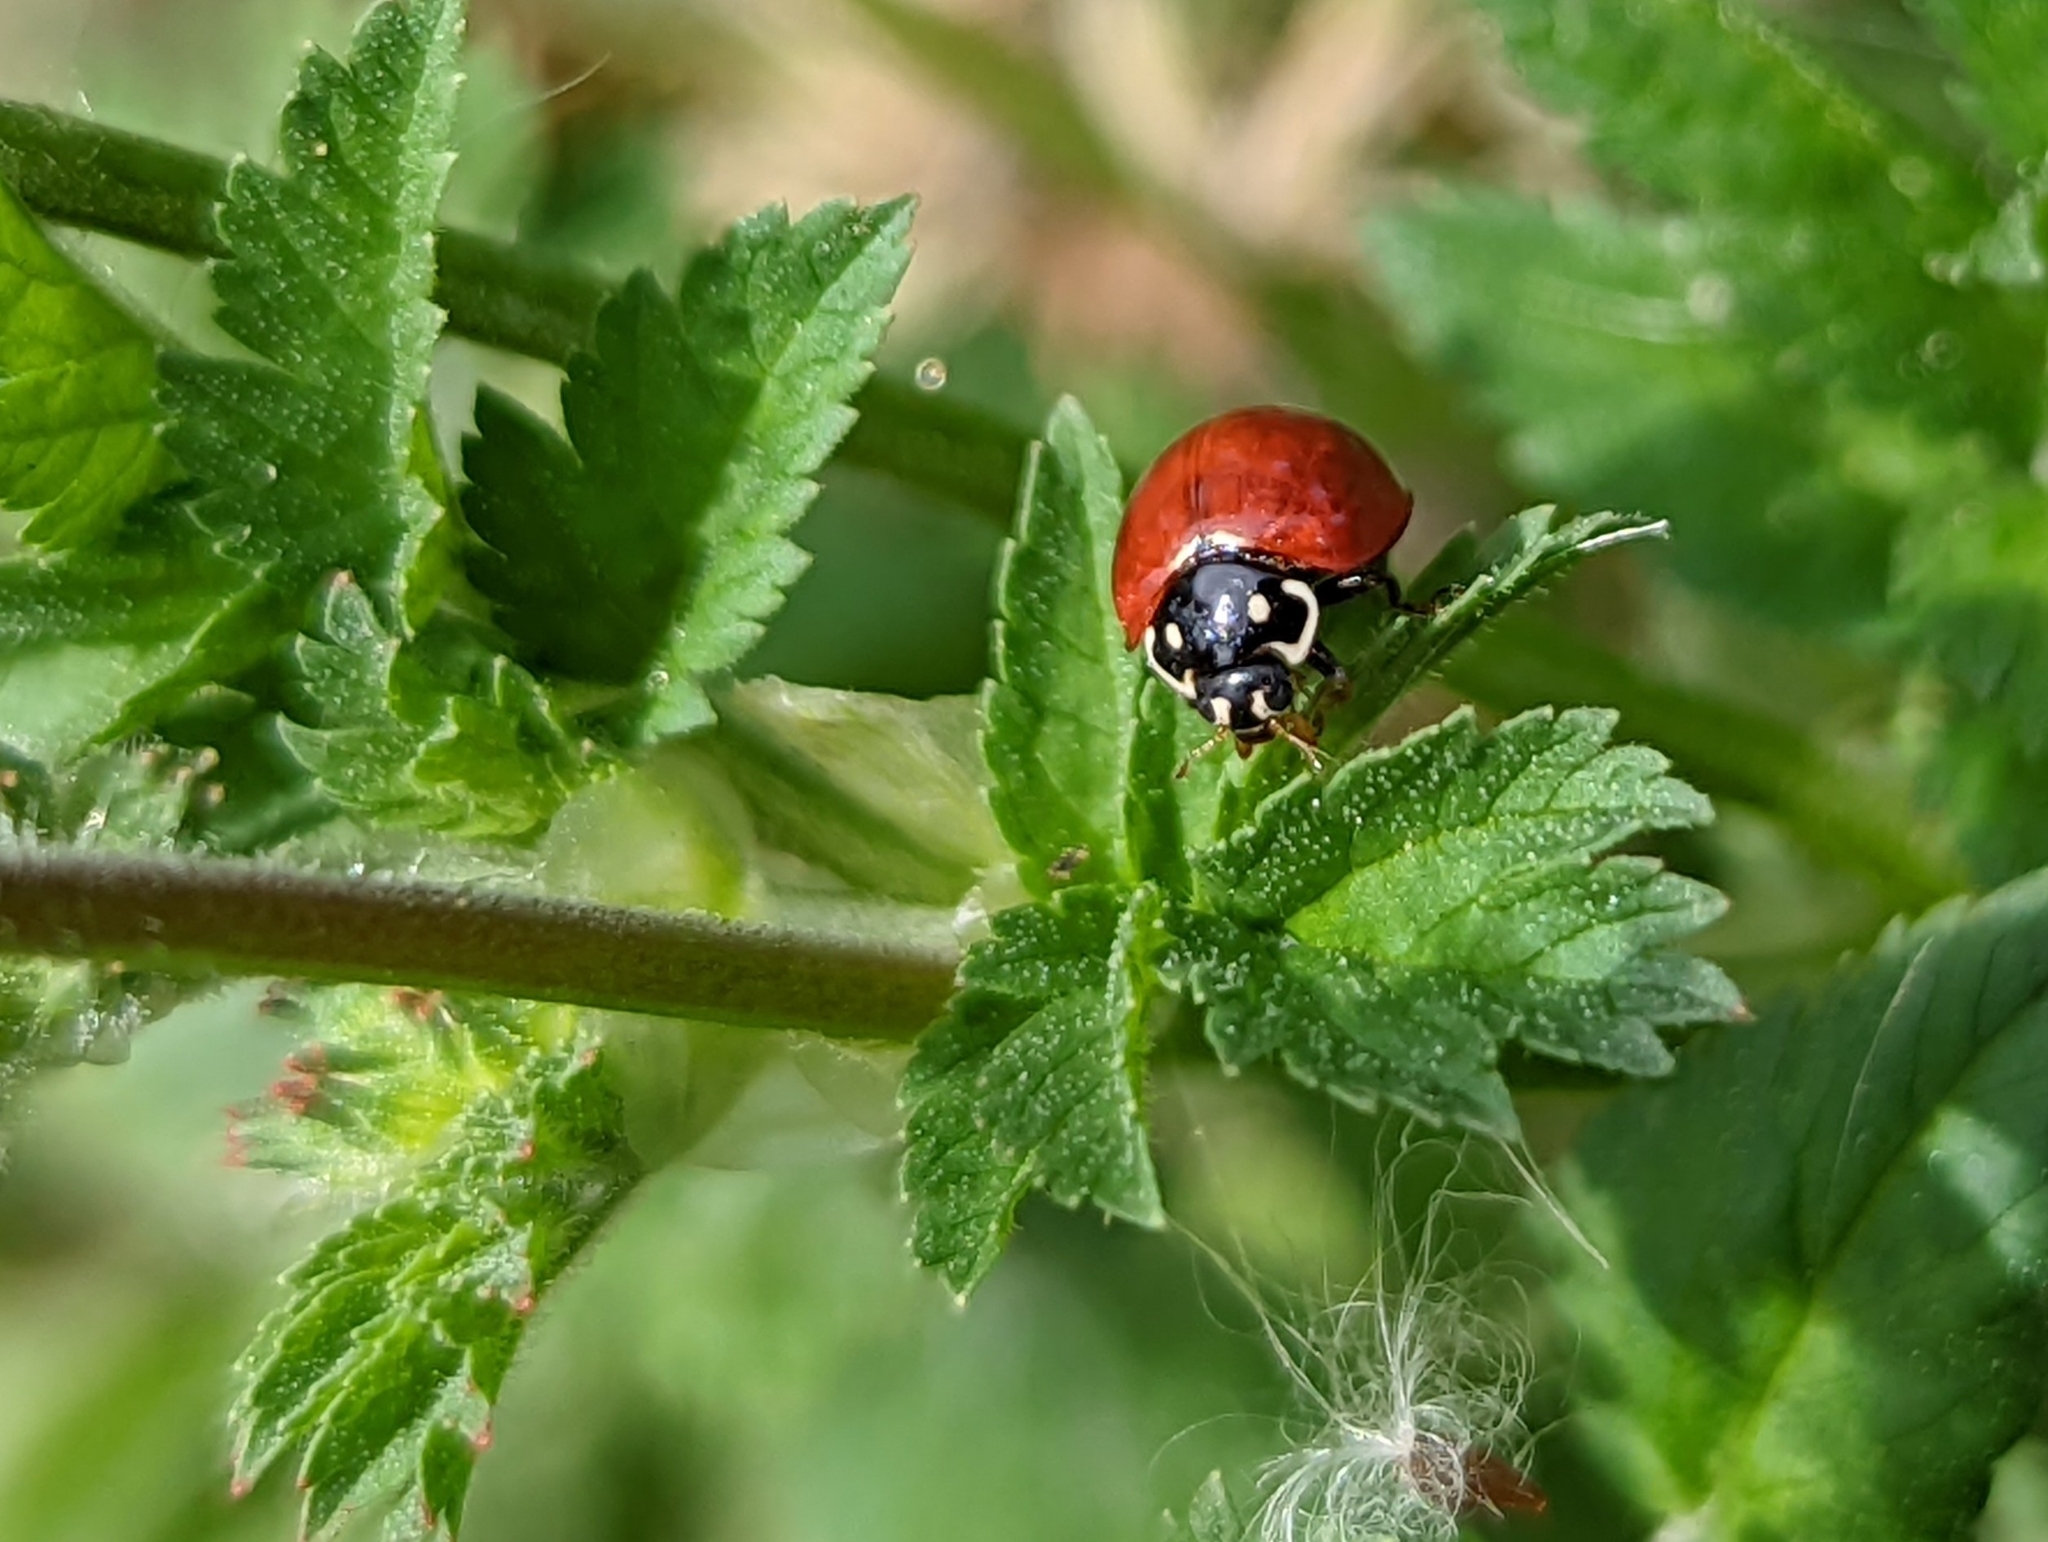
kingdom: Animalia
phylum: Arthropoda
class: Insecta
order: Coleoptera
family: Coccinellidae
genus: Cycloneda
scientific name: Cycloneda sanguinea
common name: Ladybird beetle
